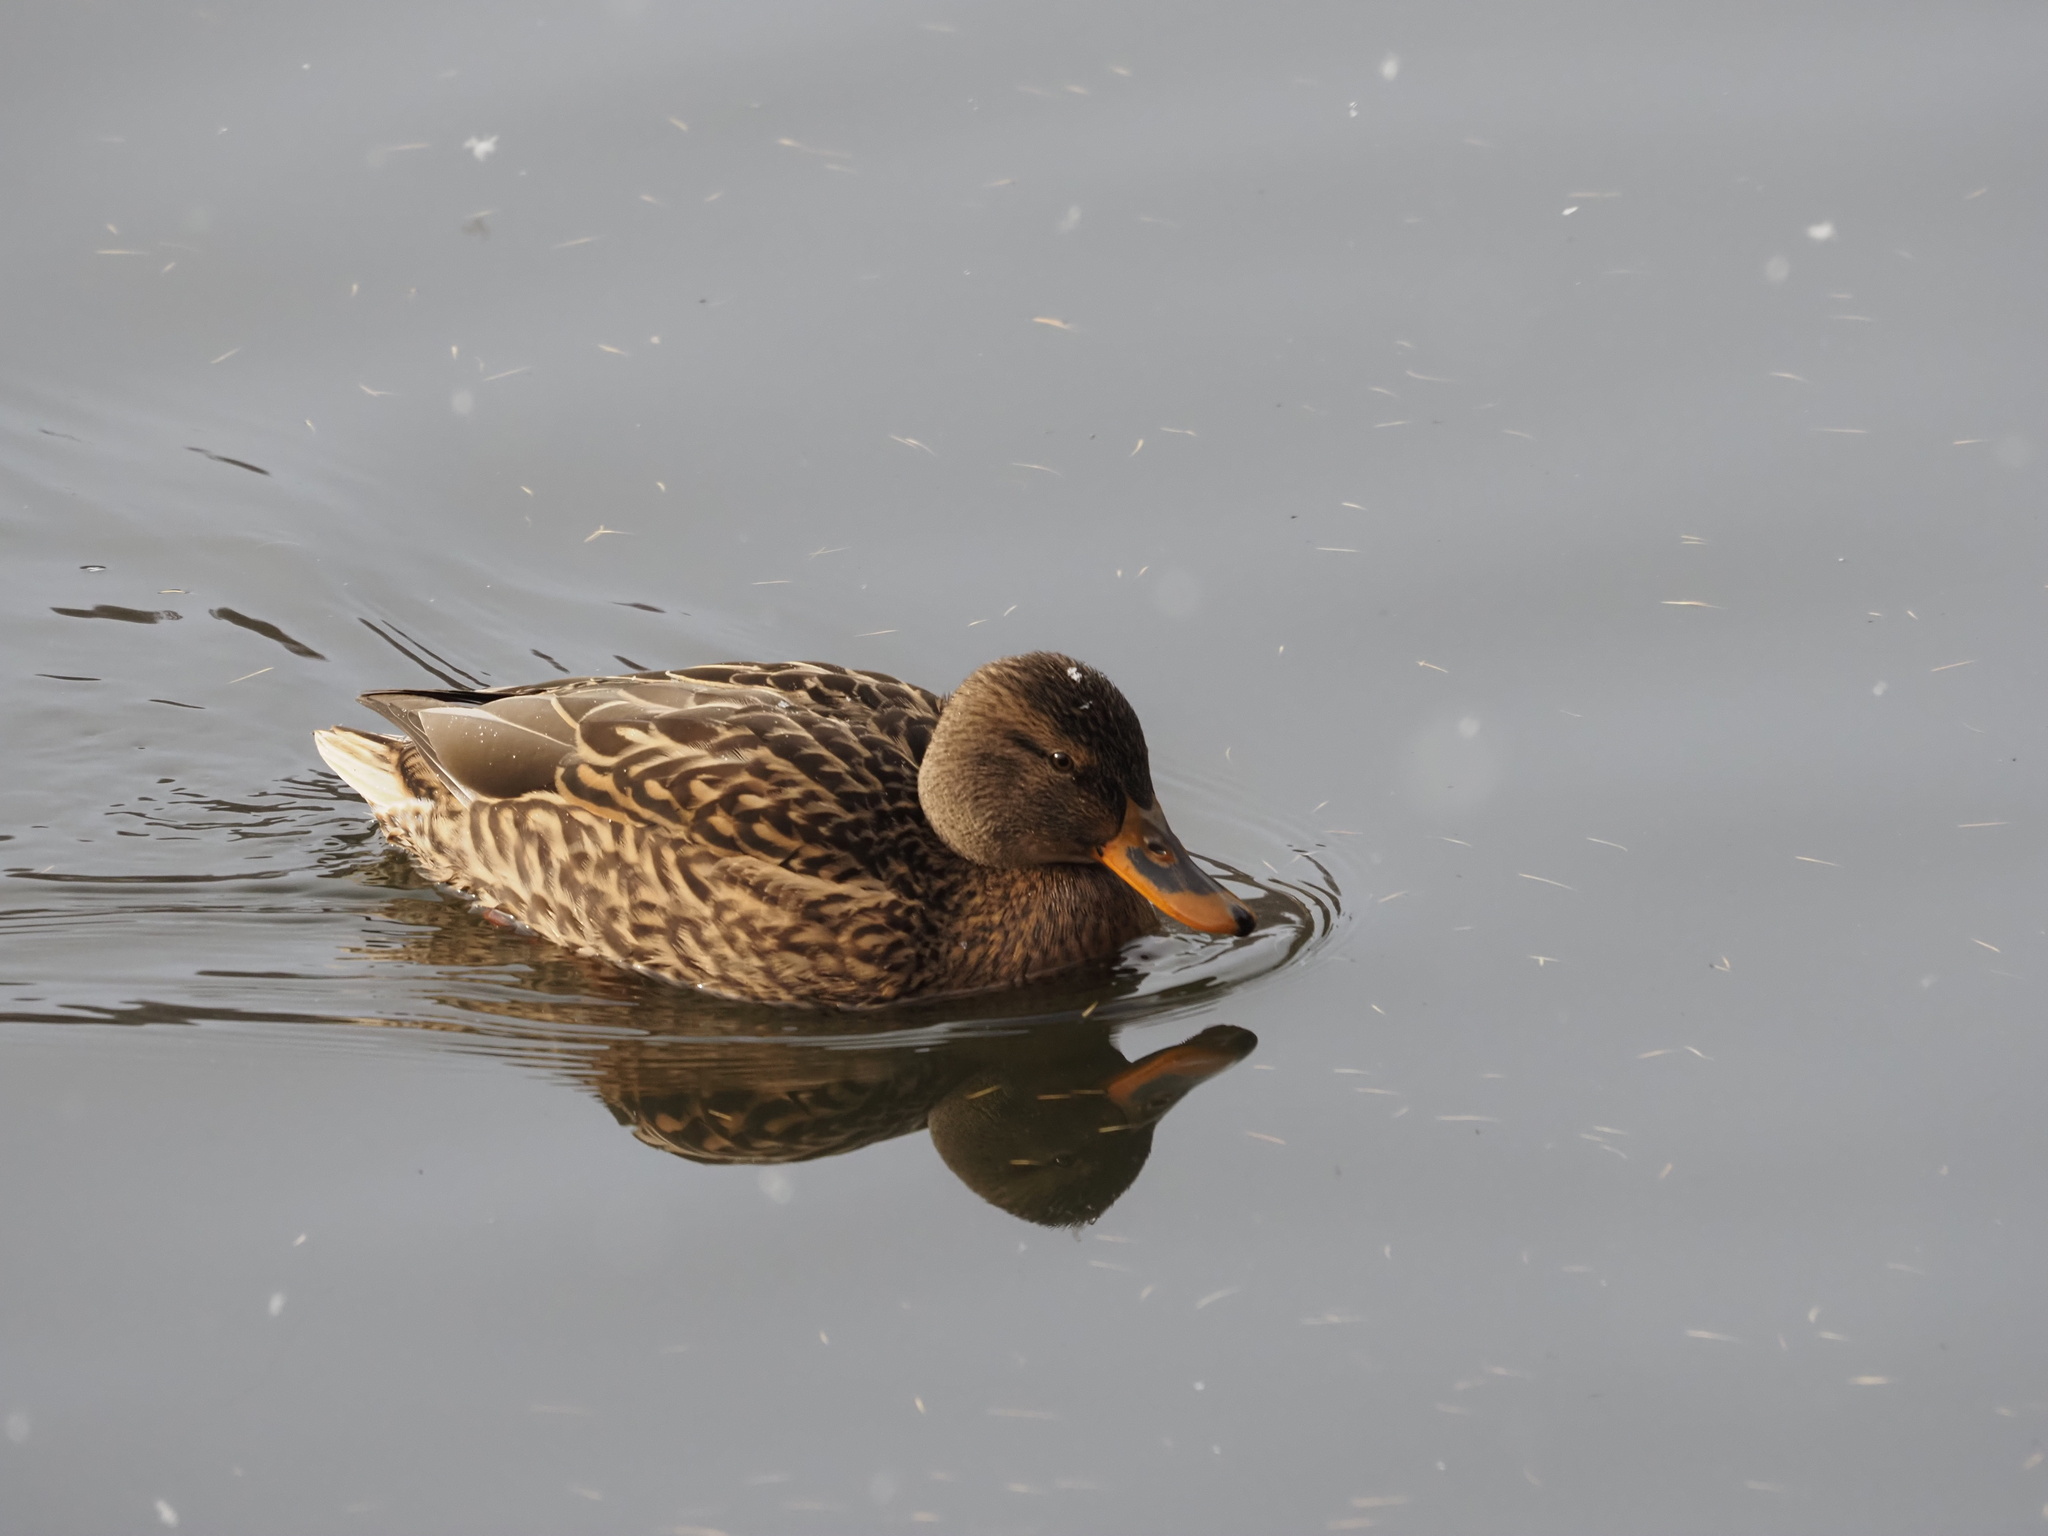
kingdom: Animalia
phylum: Chordata
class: Aves
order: Anseriformes
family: Anatidae
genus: Anas
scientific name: Anas platyrhynchos
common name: Mallard
